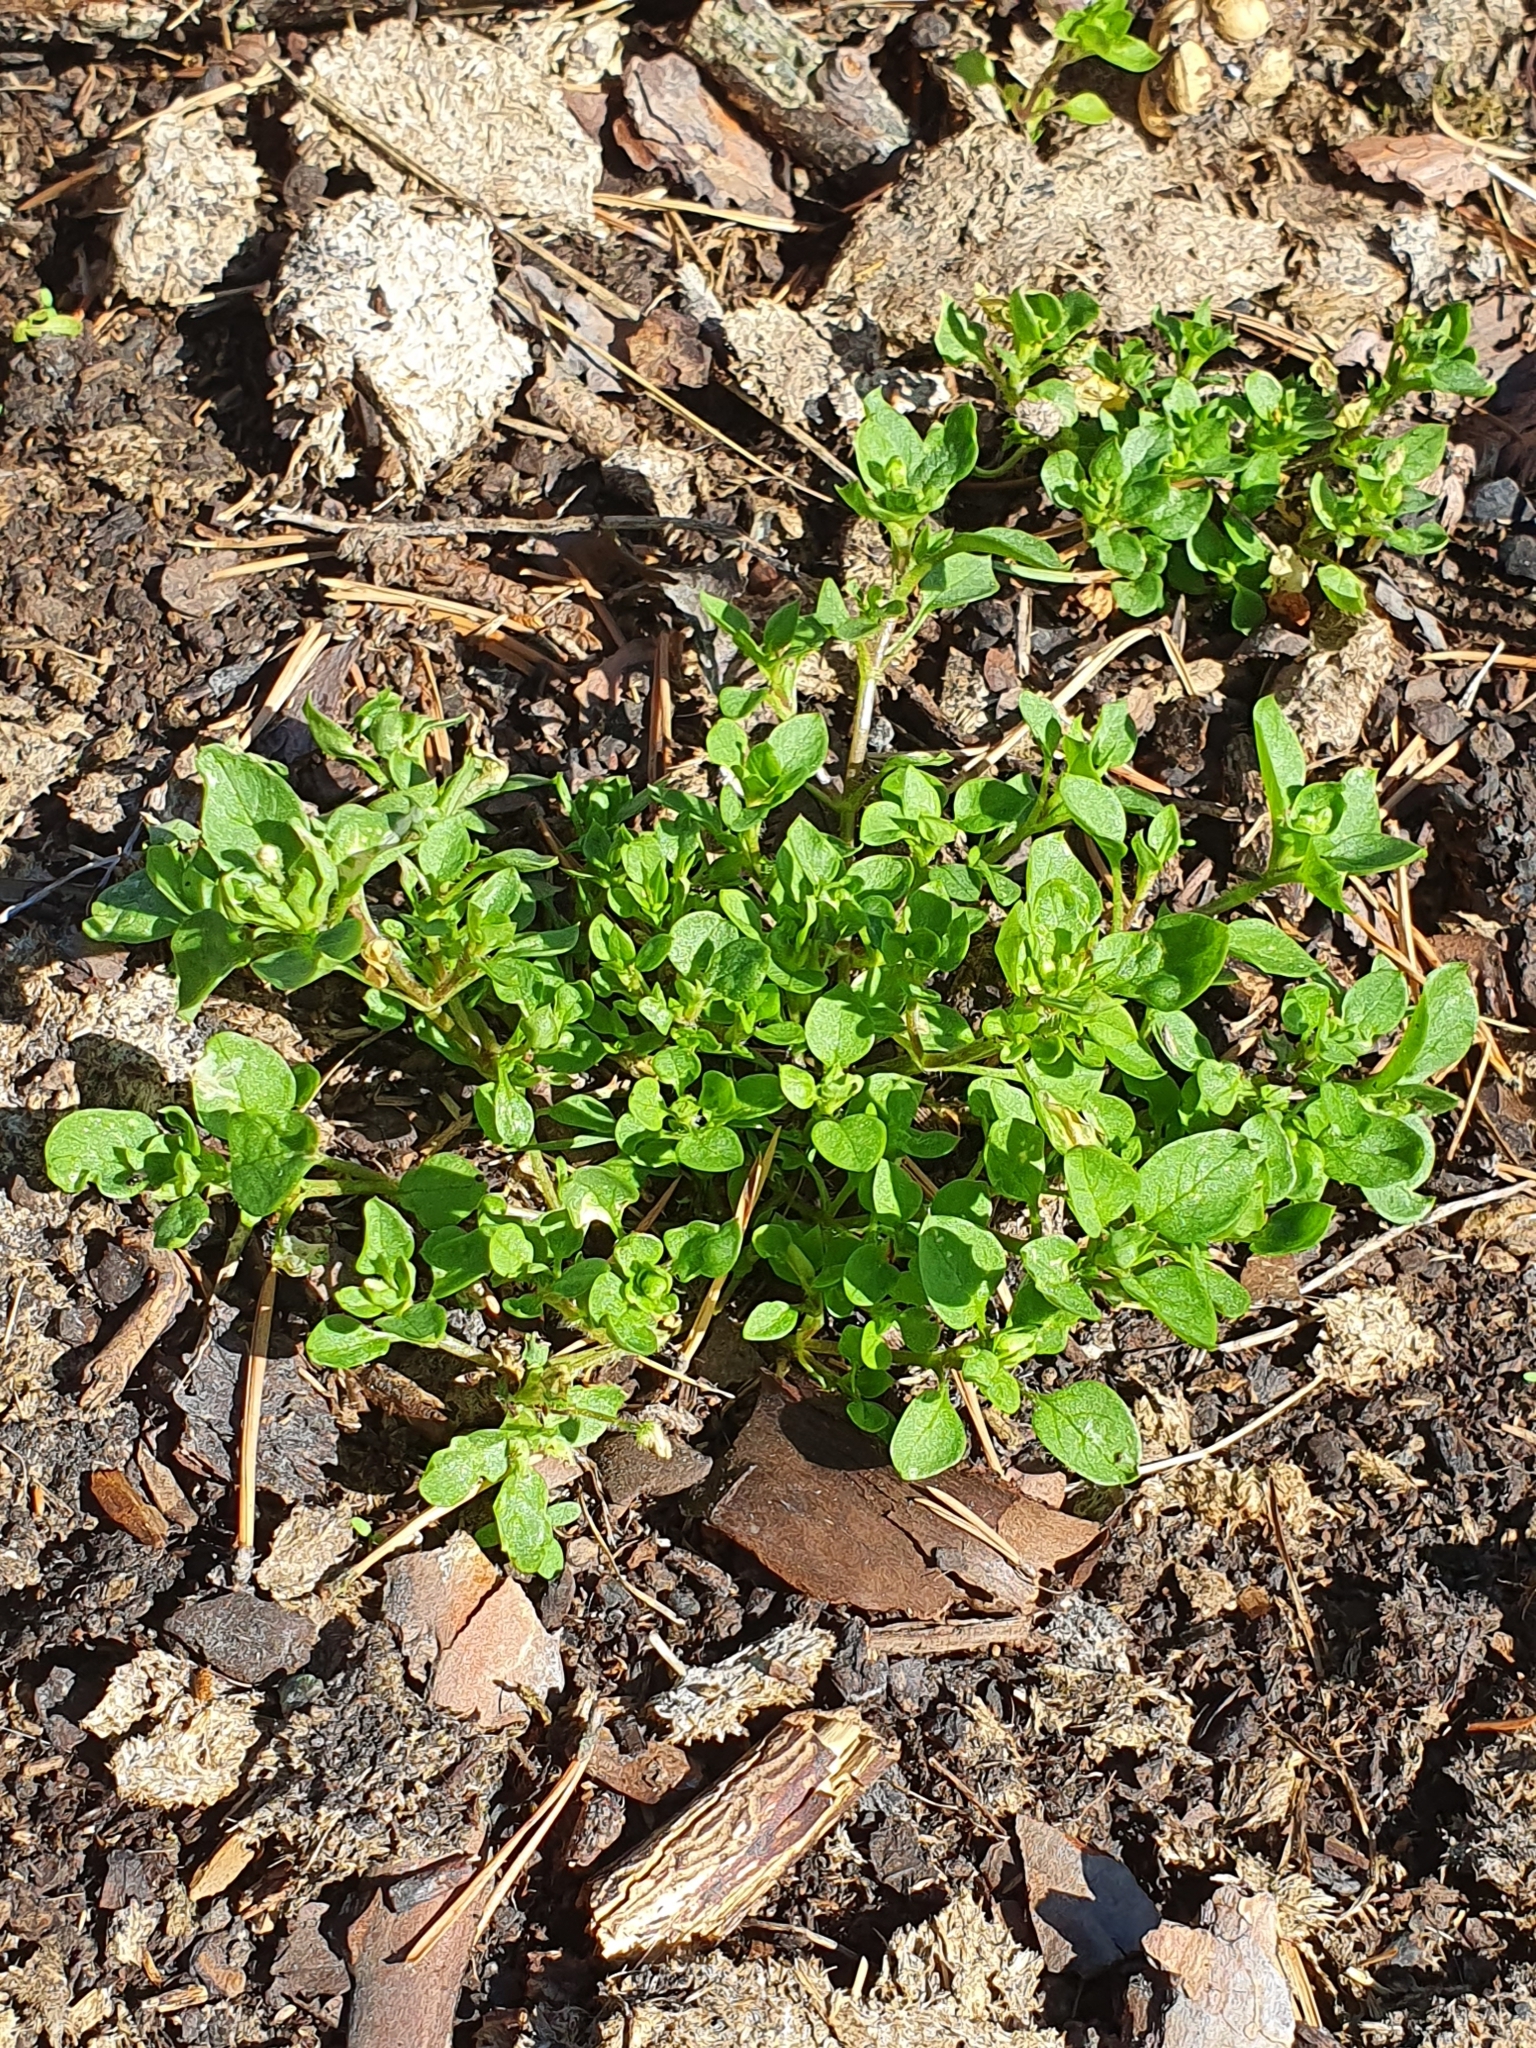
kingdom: Plantae
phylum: Tracheophyta
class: Magnoliopsida
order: Caryophyllales
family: Caryophyllaceae
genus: Stellaria
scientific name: Stellaria media
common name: Common chickweed
